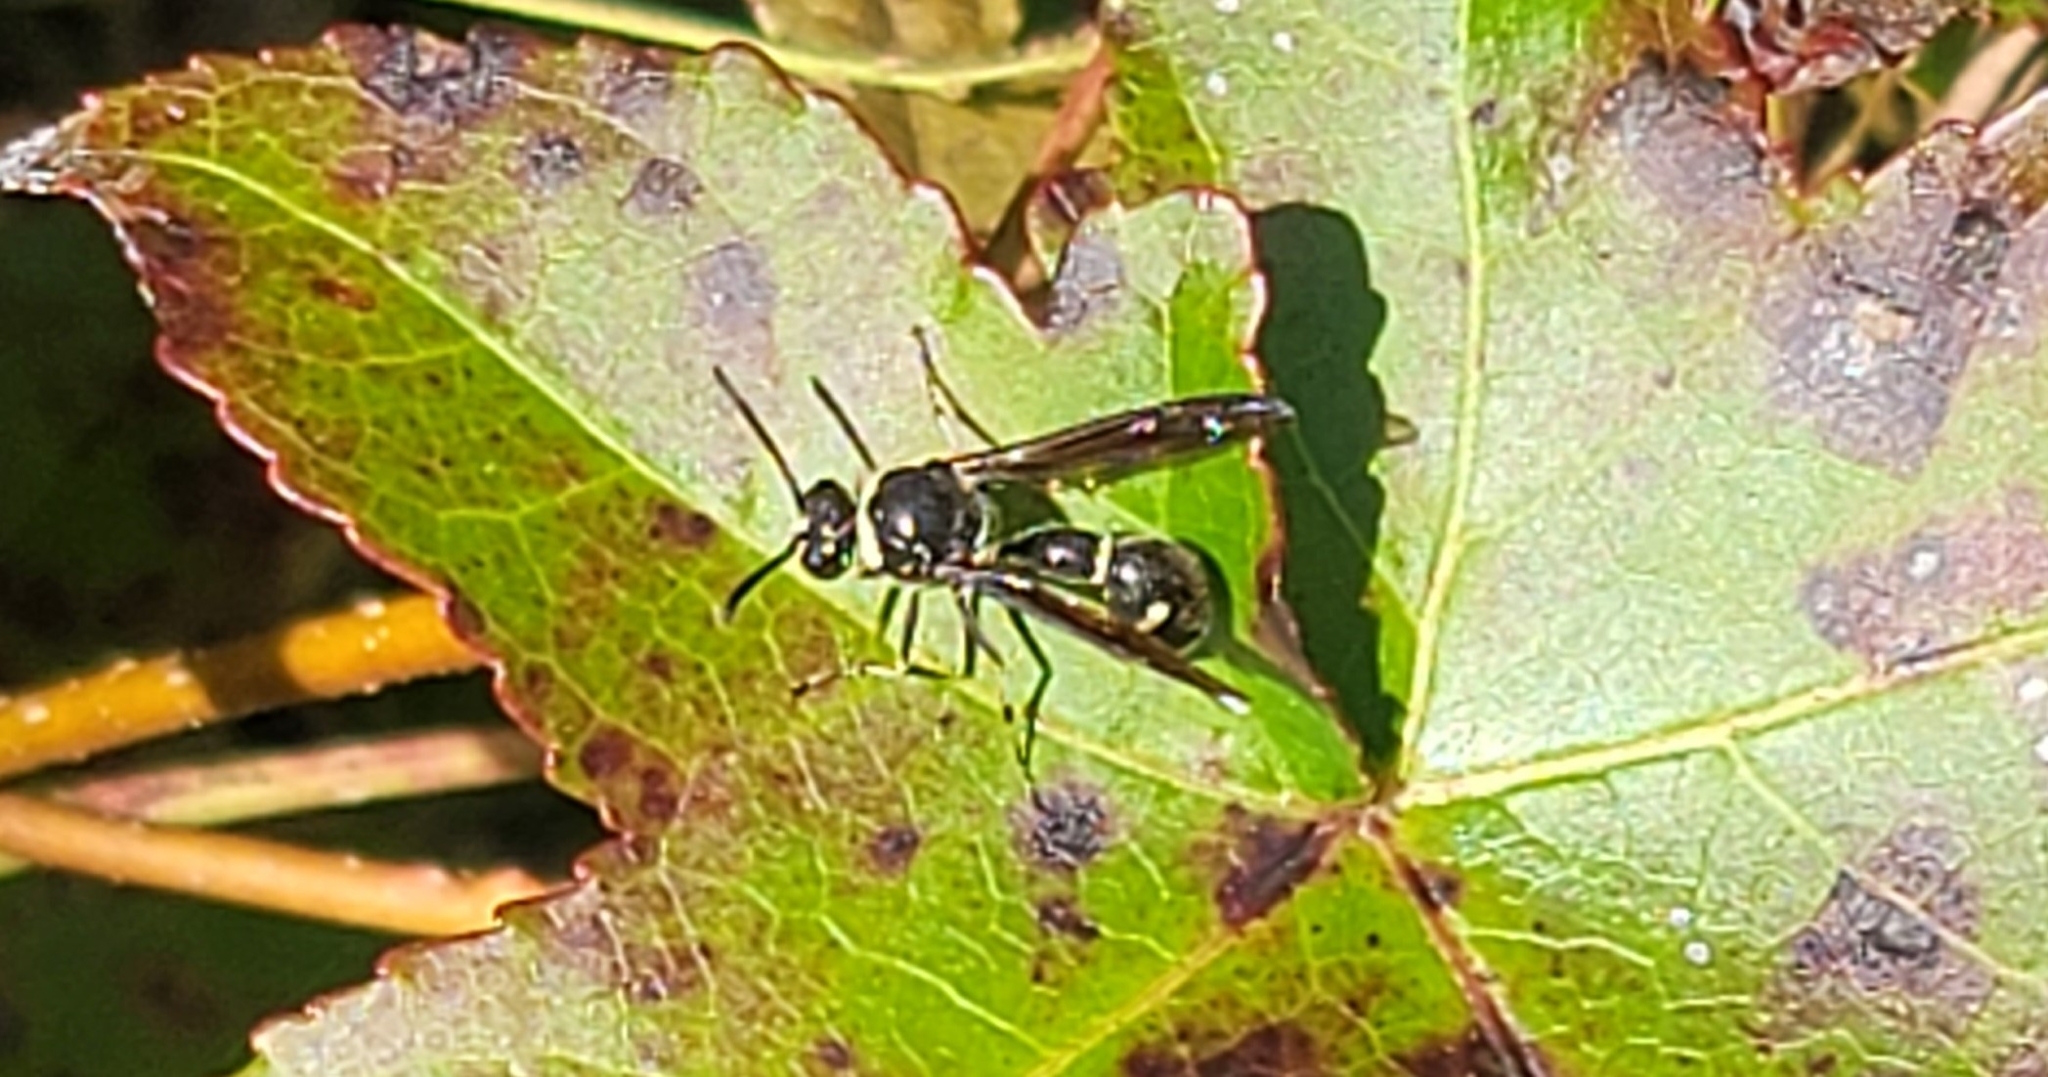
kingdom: Animalia
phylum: Arthropoda
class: Insecta
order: Hymenoptera
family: Vespidae
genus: Eumenes
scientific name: Eumenes fraternus
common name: Fraternal potter wasp
